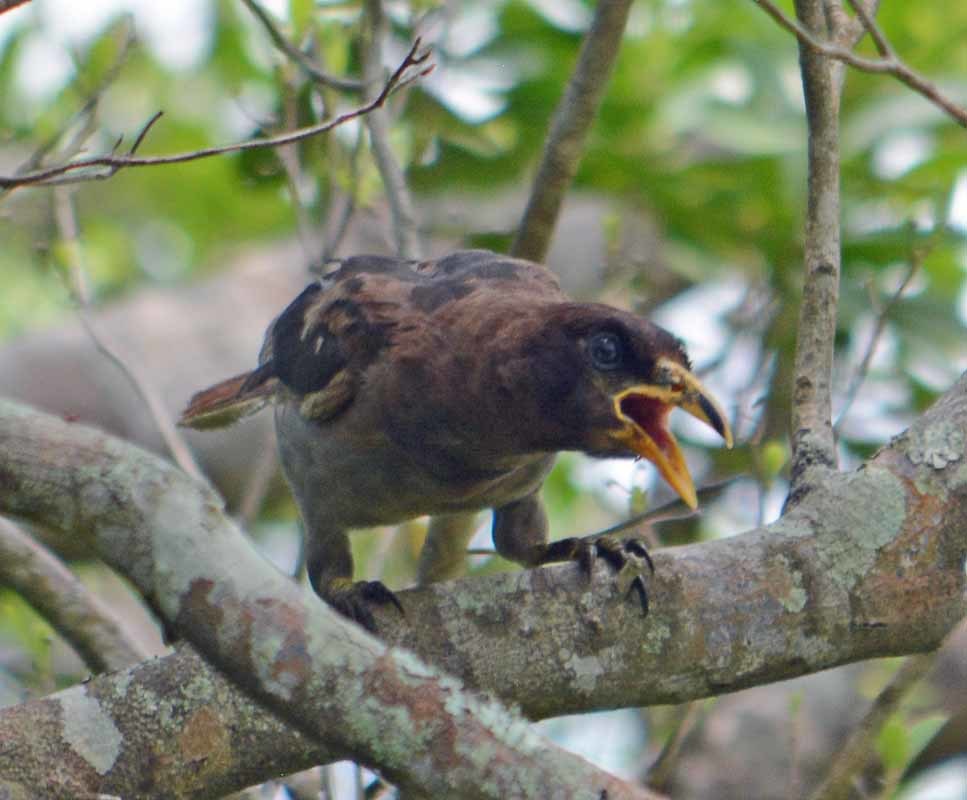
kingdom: Animalia
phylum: Chordata
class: Aves
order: Passeriformes
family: Corvidae
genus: Psilorhinus
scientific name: Psilorhinus morio
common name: Brown jay
